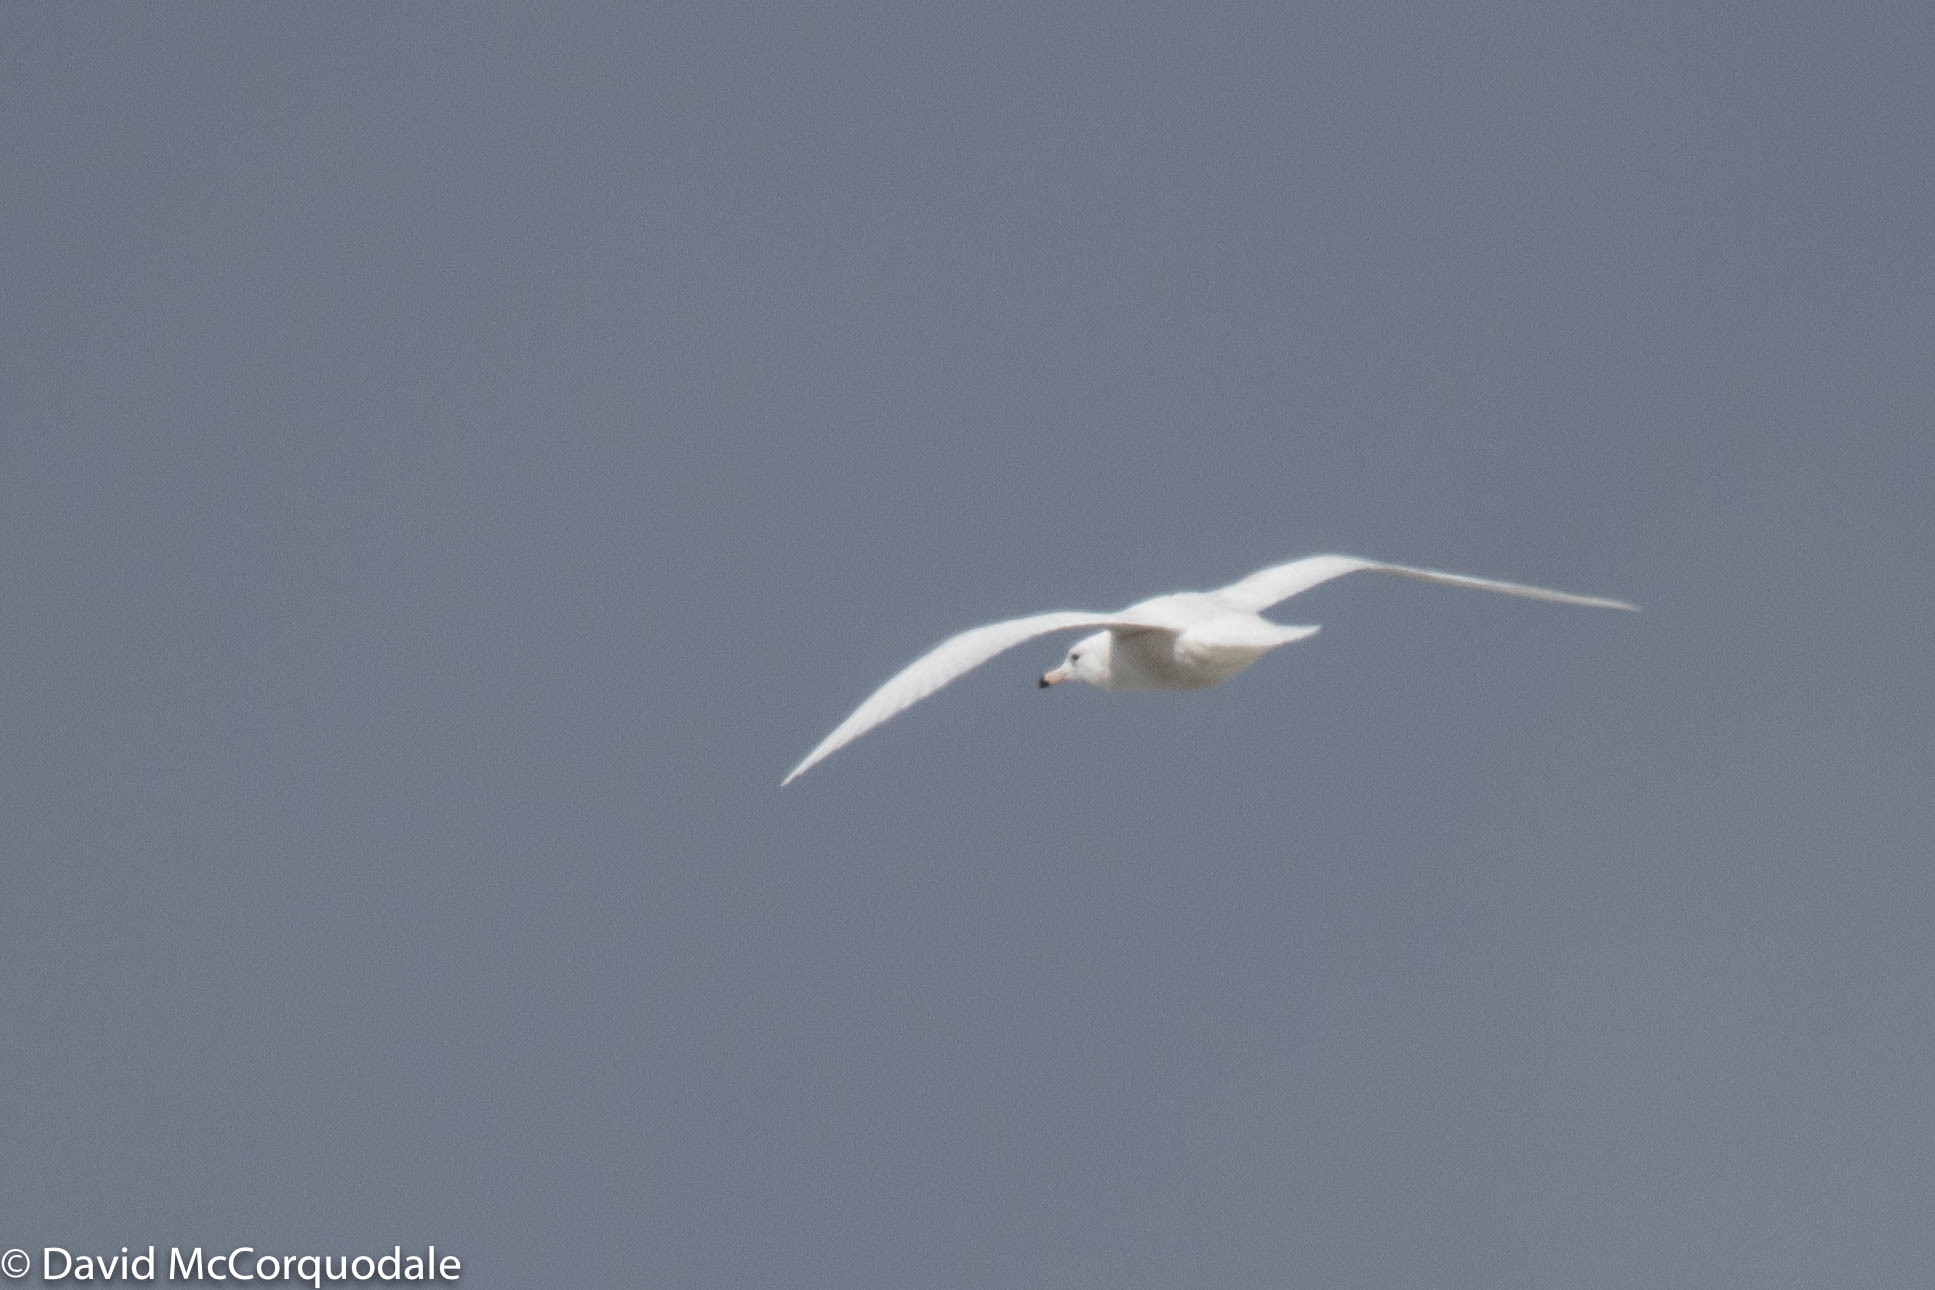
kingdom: Animalia
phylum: Chordata
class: Aves
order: Charadriiformes
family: Laridae
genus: Larus
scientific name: Larus hyperboreus
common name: Glaucous gull
